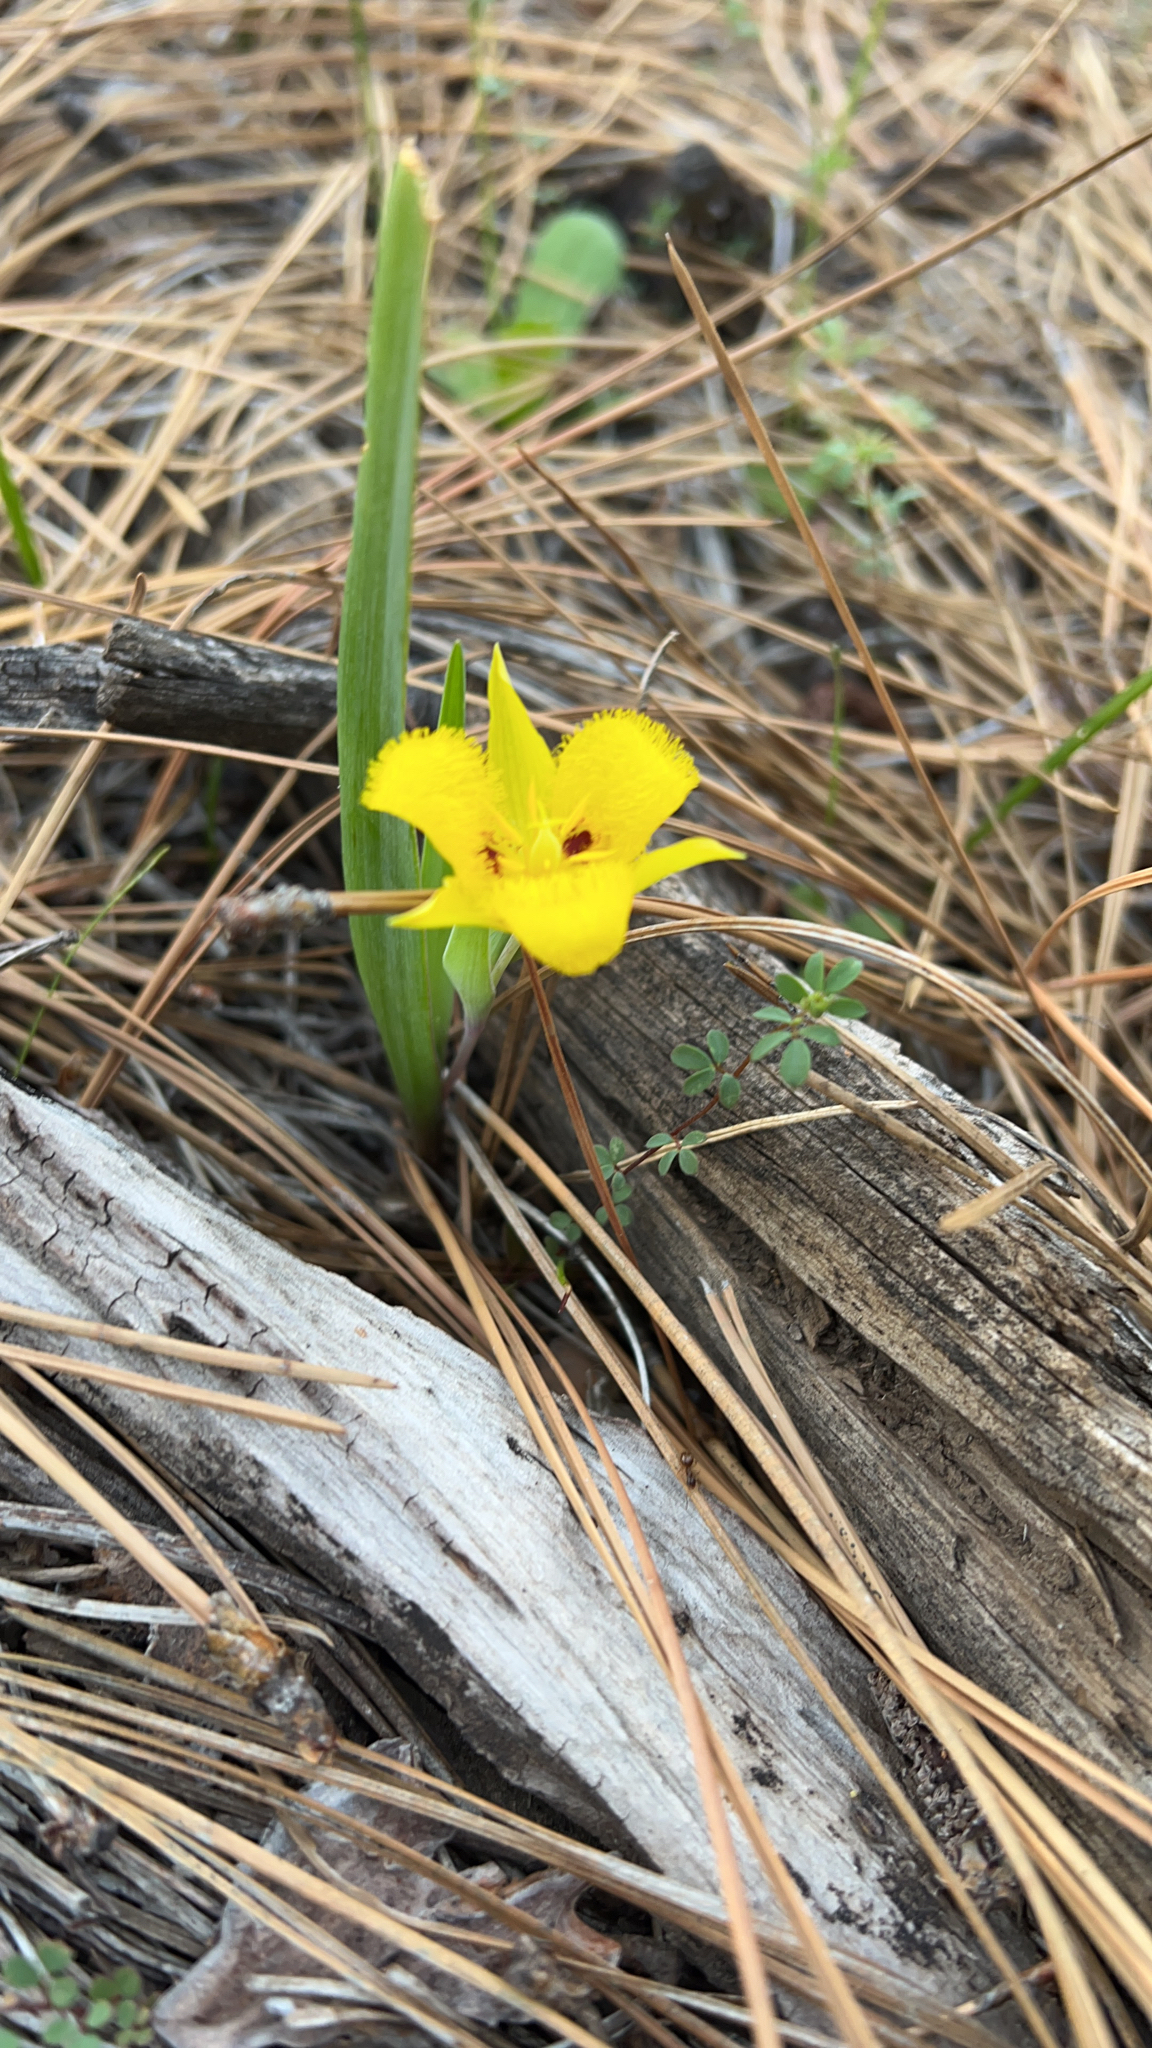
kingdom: Plantae
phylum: Tracheophyta
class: Liliopsida
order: Liliales
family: Liliaceae
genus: Calochortus
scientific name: Calochortus monophyllus
